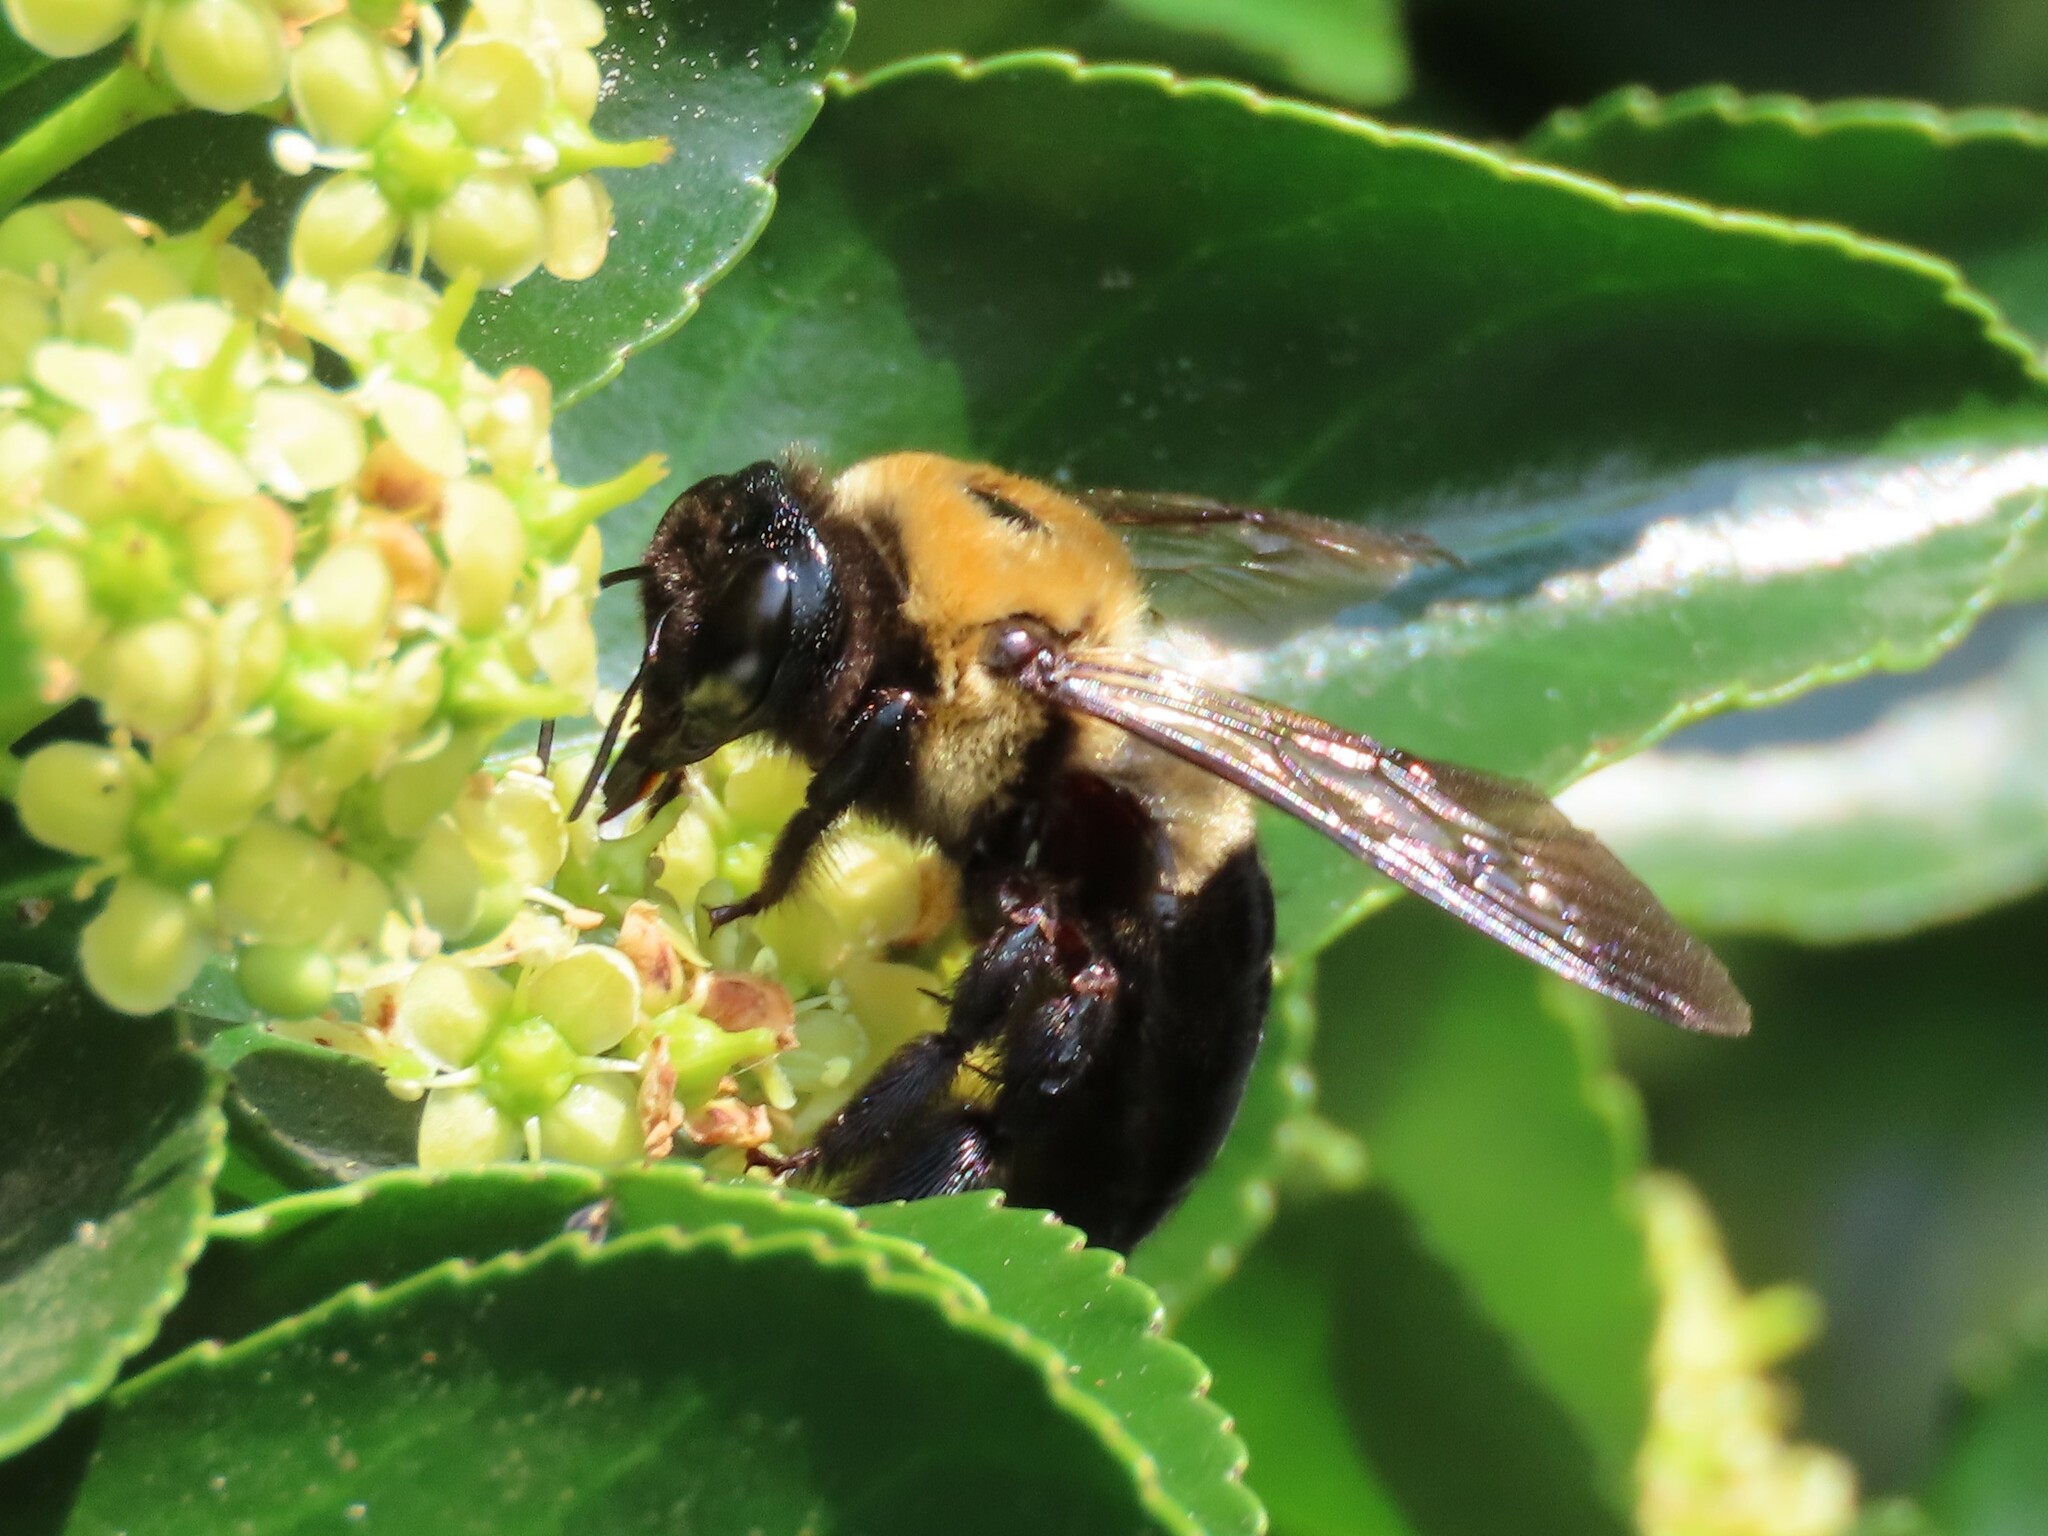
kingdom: Animalia
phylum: Arthropoda
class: Insecta
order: Hymenoptera
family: Apidae
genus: Xylocopa
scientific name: Xylocopa virginica
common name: Carpenter bee
